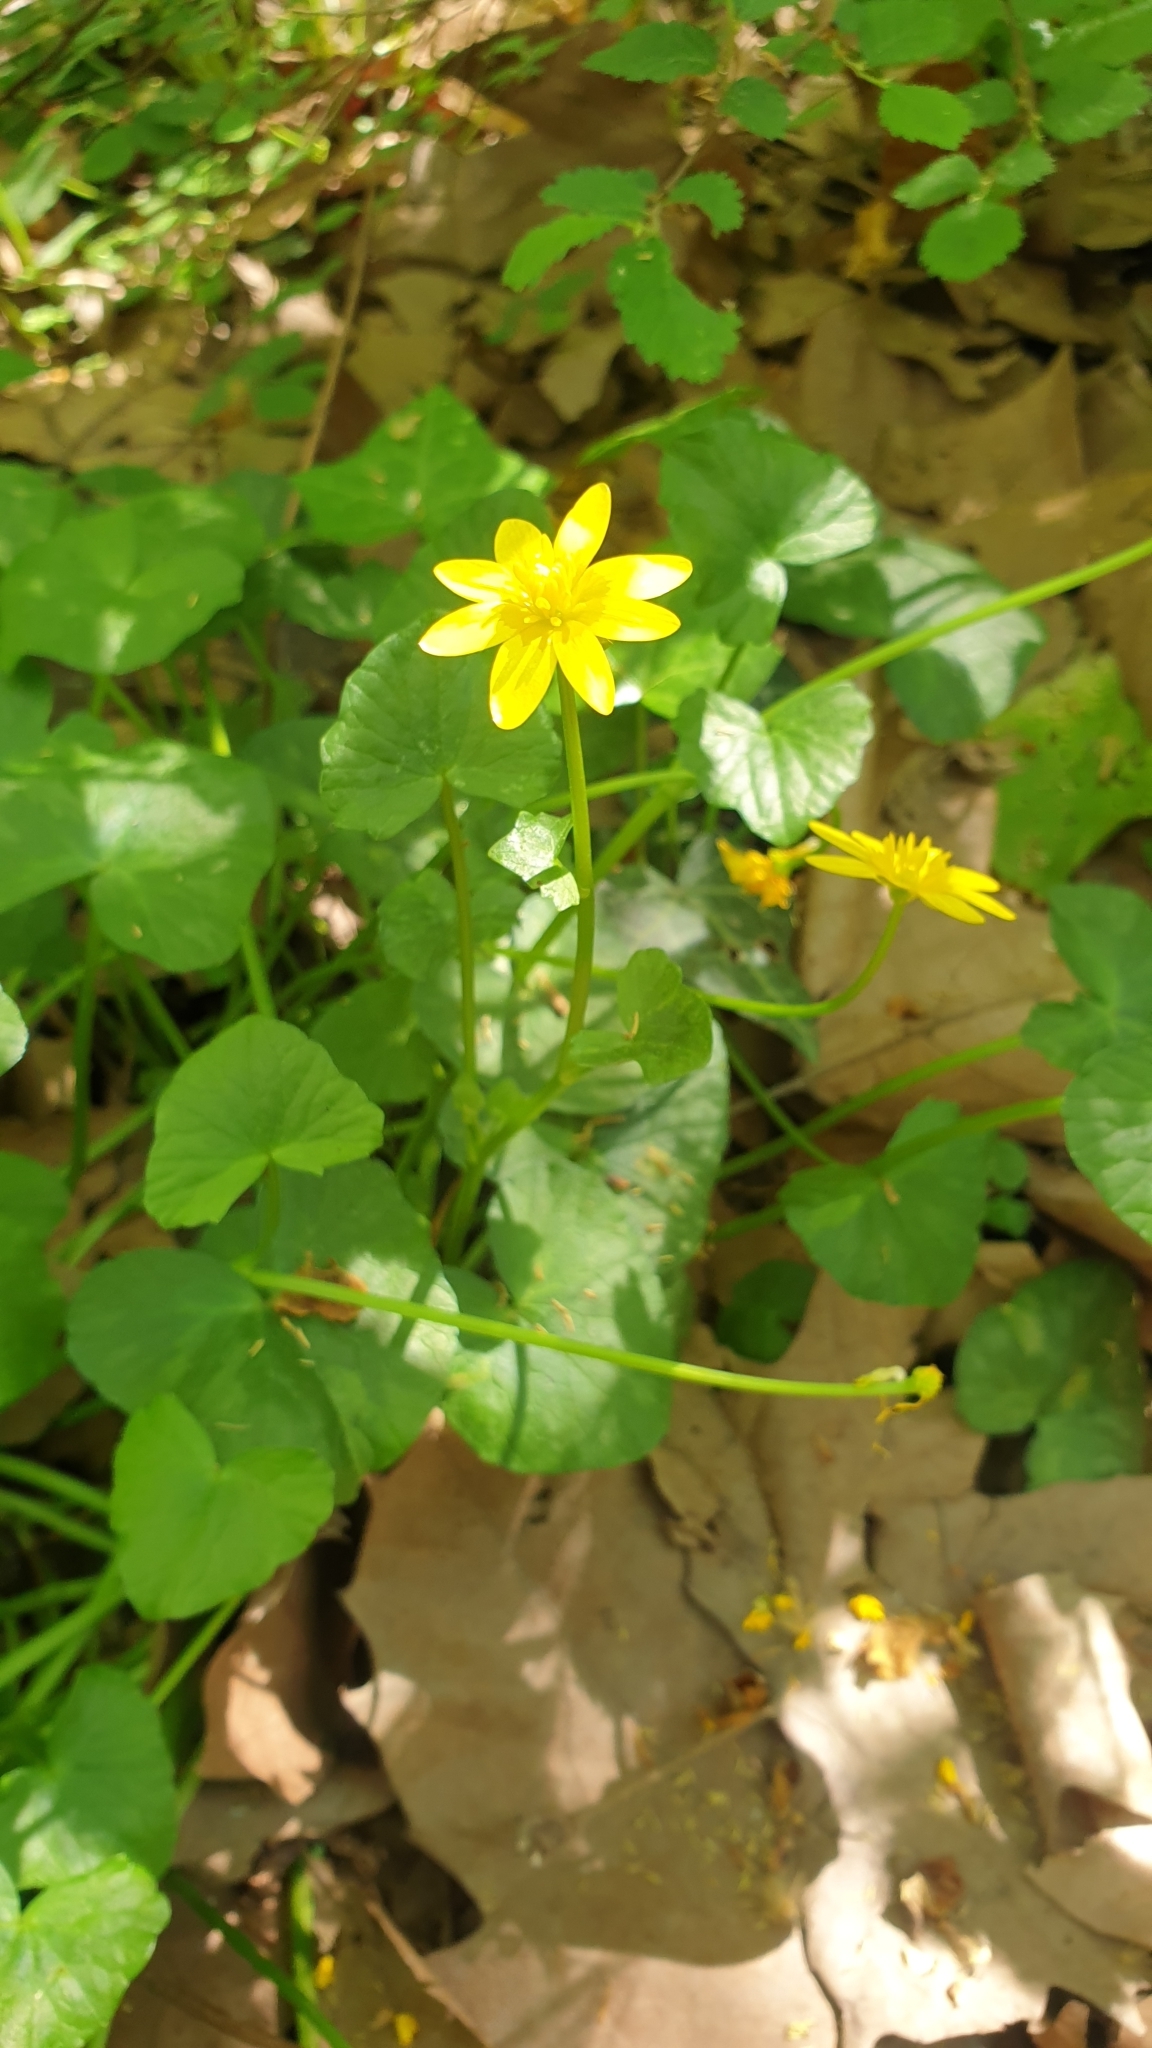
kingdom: Plantae
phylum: Tracheophyta
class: Magnoliopsida
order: Ranunculales
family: Ranunculaceae
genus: Ficaria
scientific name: Ficaria verna
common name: Lesser celandine
